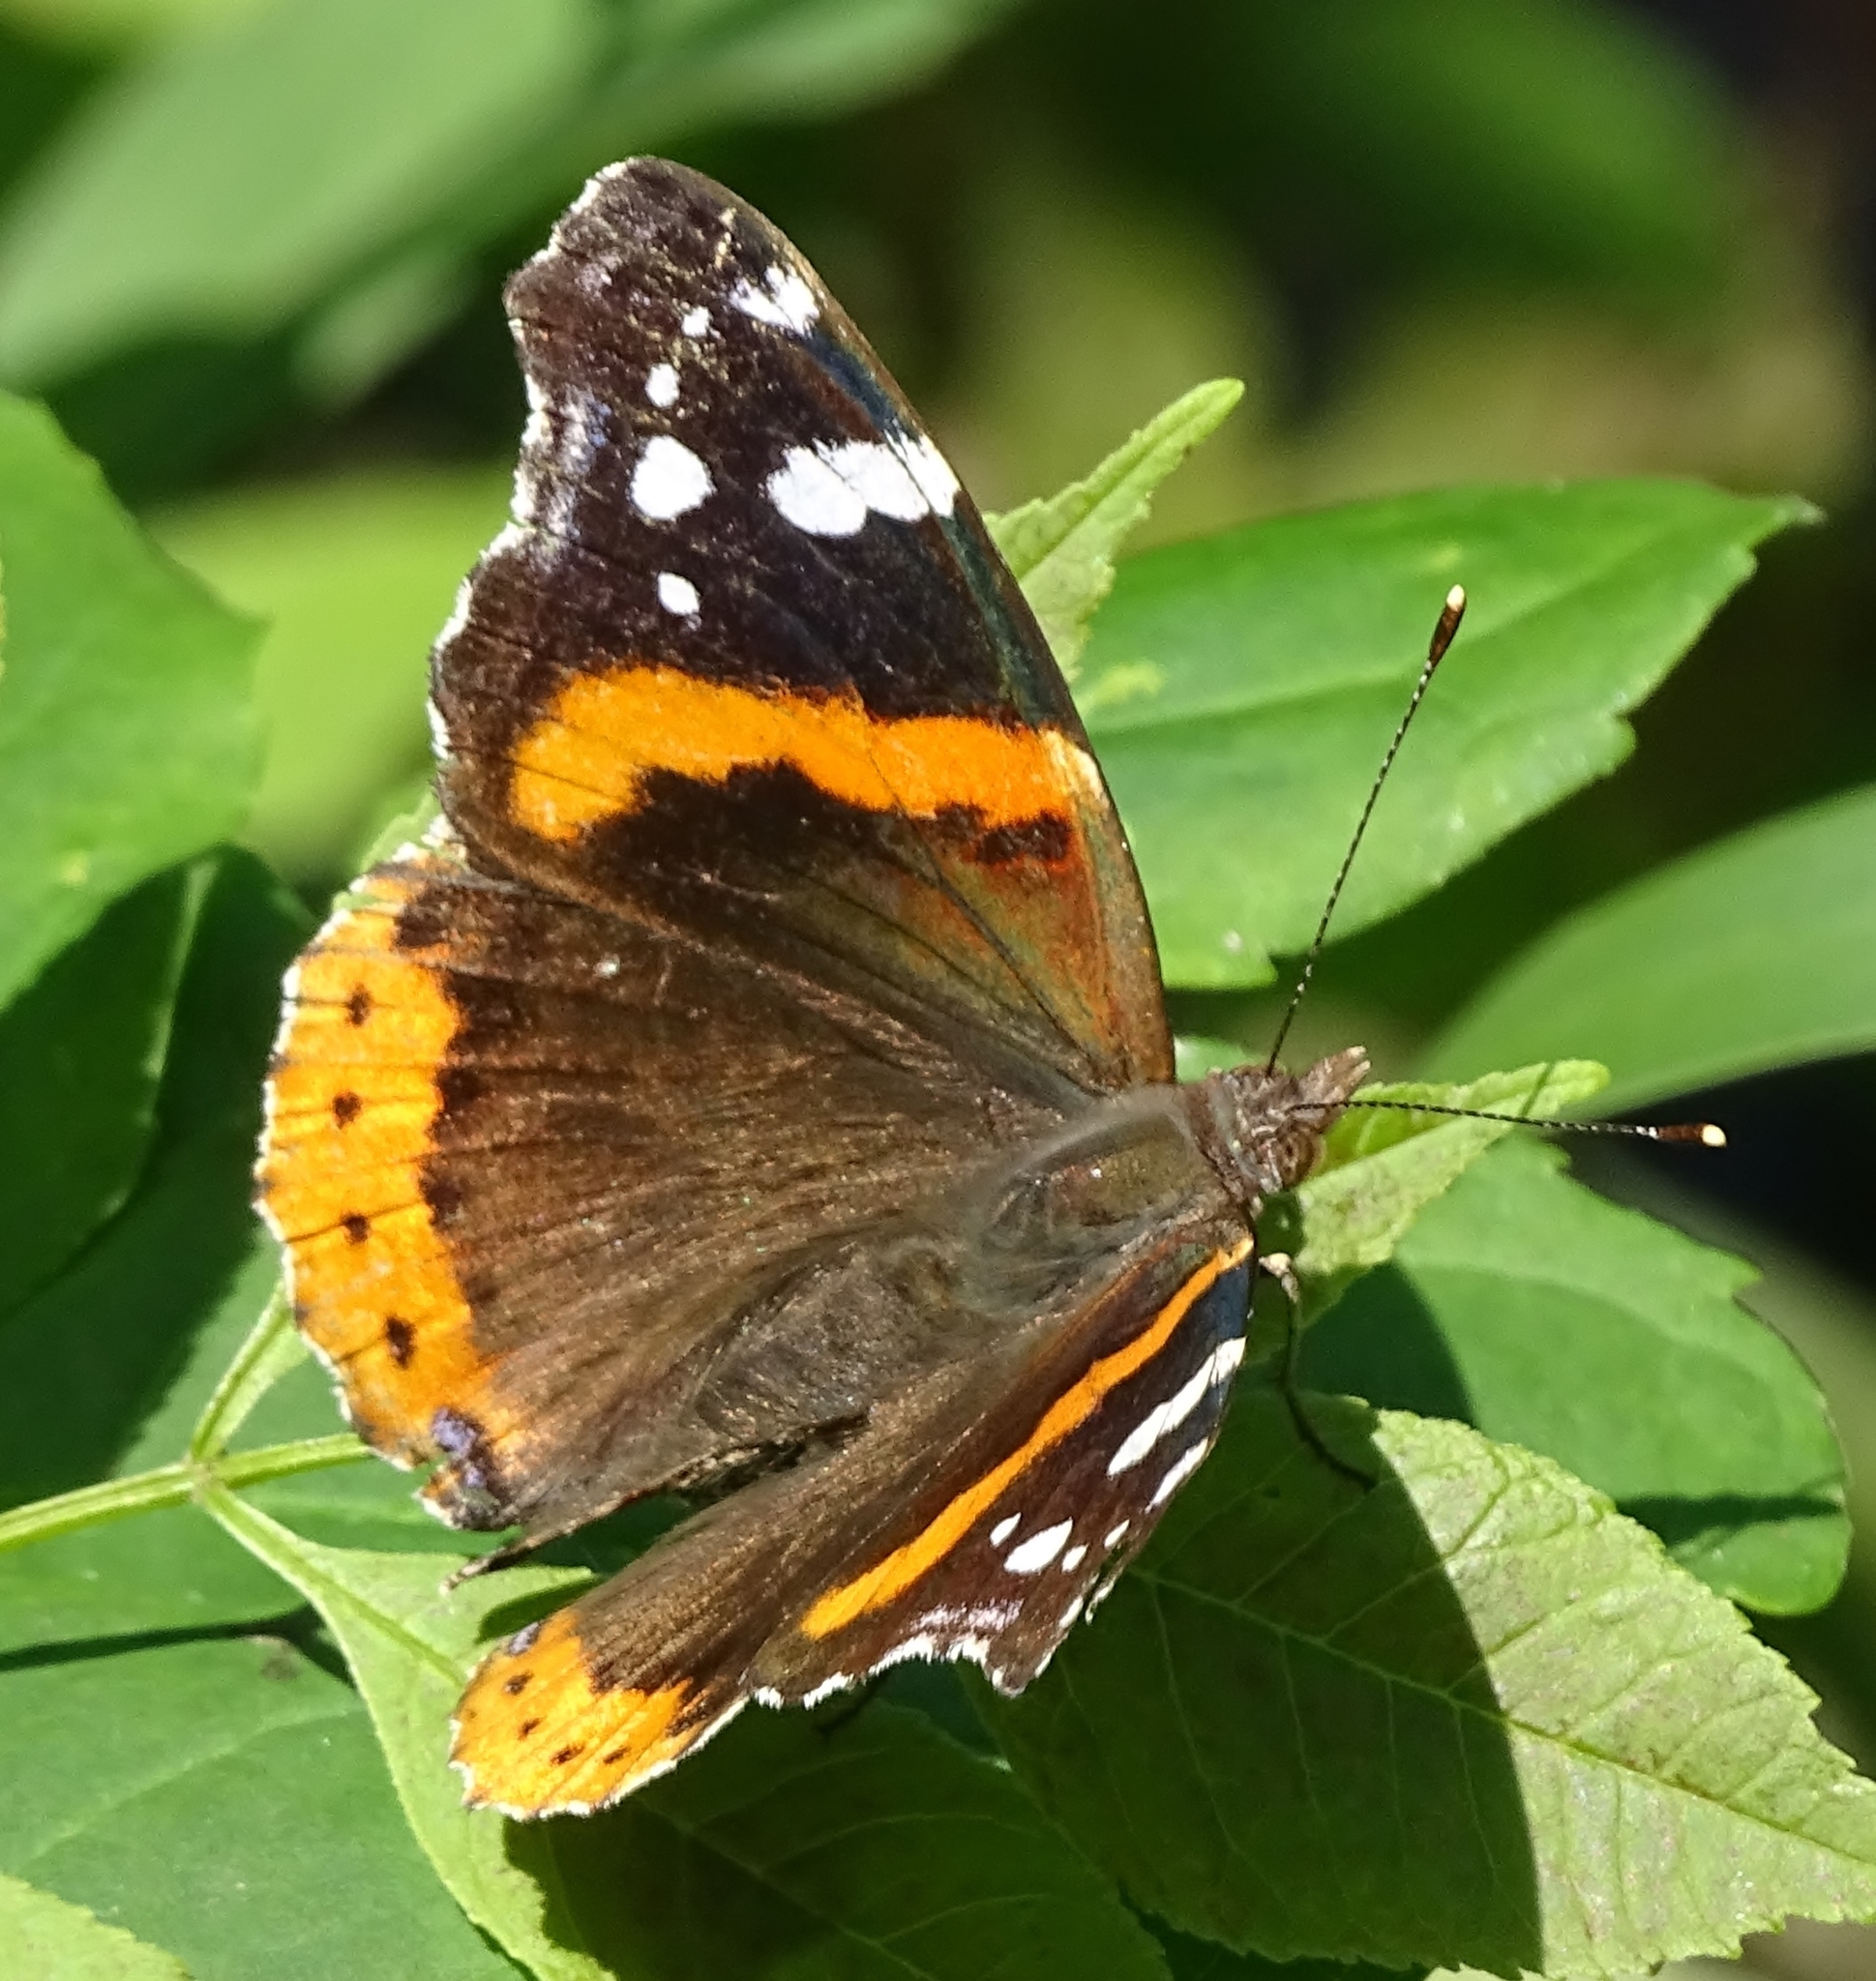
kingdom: Animalia
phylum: Arthropoda
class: Insecta
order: Lepidoptera
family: Nymphalidae
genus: Vanessa
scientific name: Vanessa atalanta
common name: Red admiral
